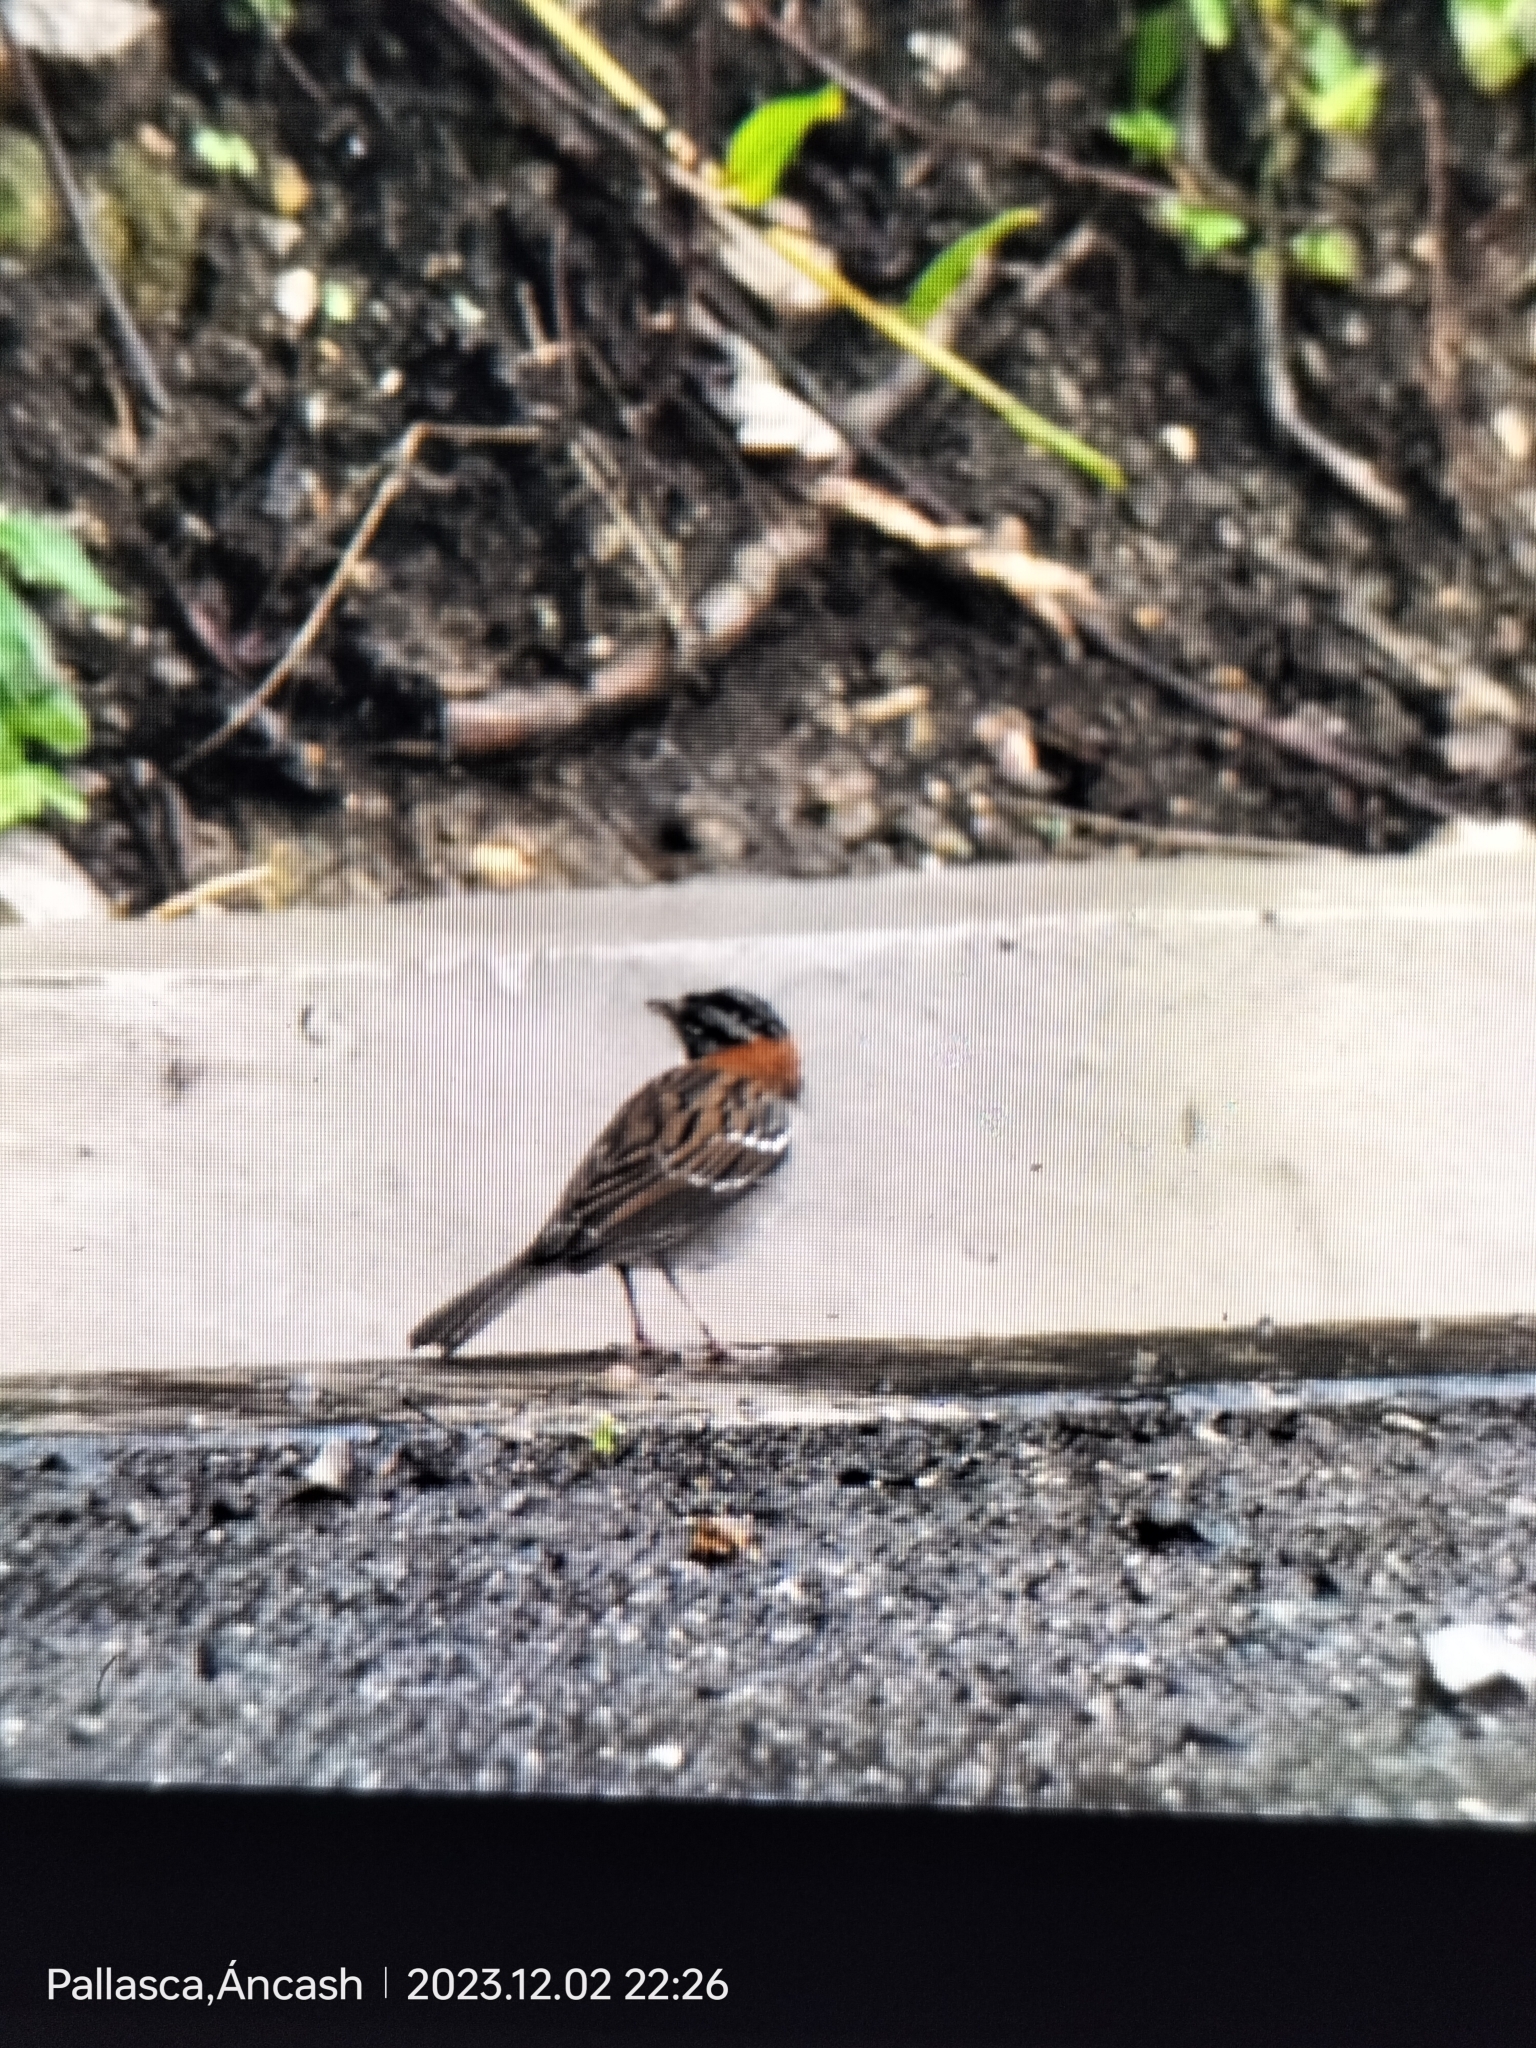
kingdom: Animalia
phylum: Chordata
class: Aves
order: Passeriformes
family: Passerellidae
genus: Zonotrichia
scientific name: Zonotrichia capensis
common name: Rufous-collared sparrow
